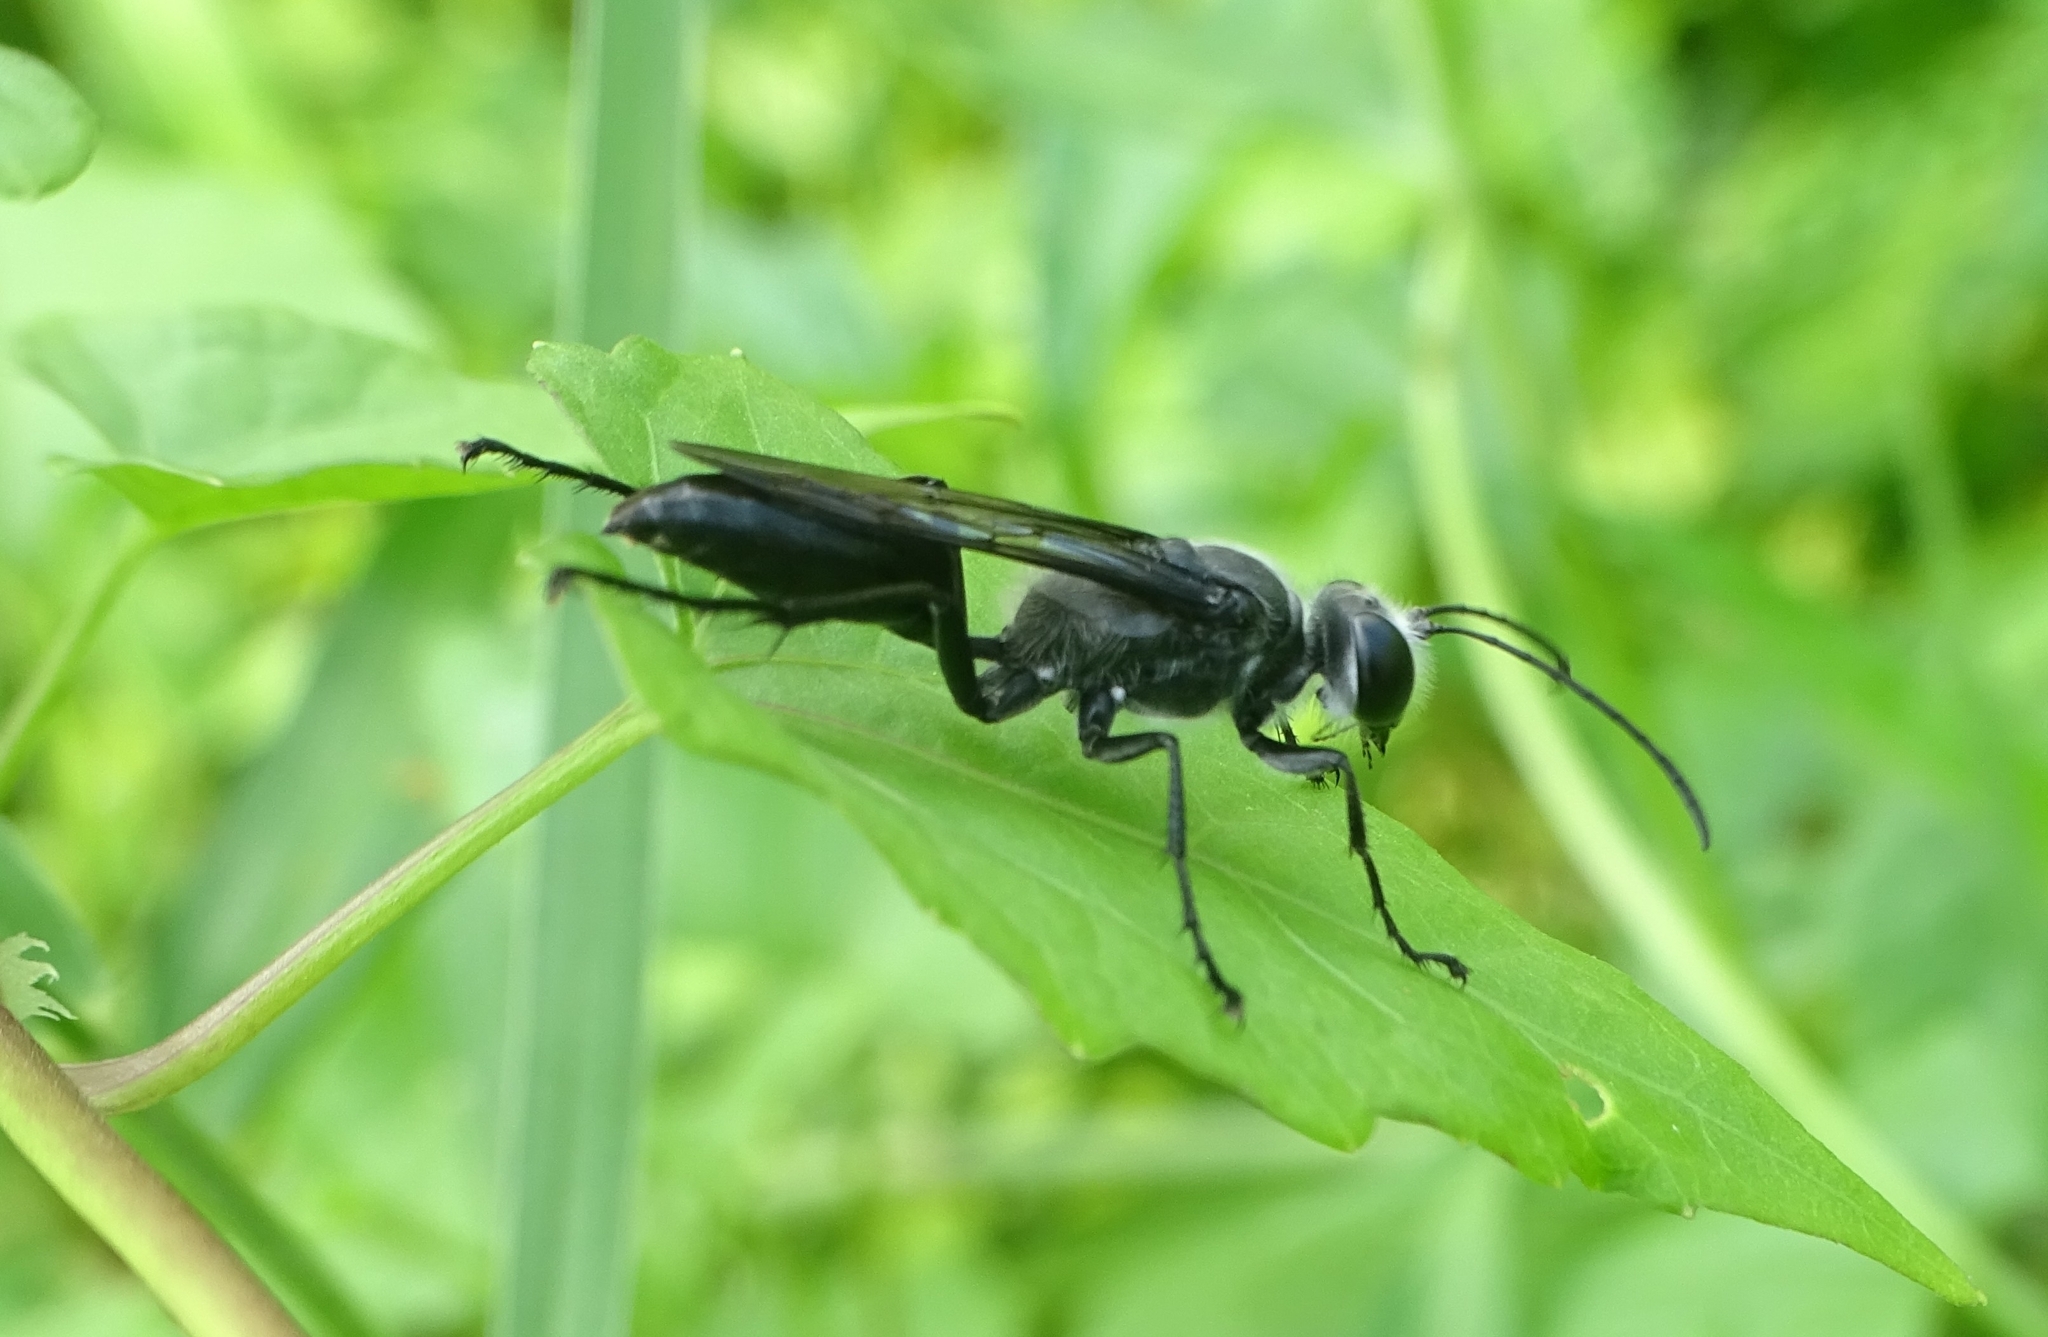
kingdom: Animalia
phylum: Arthropoda
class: Insecta
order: Hymenoptera
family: Sphecidae
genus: Sphex
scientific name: Sphex argentatus
